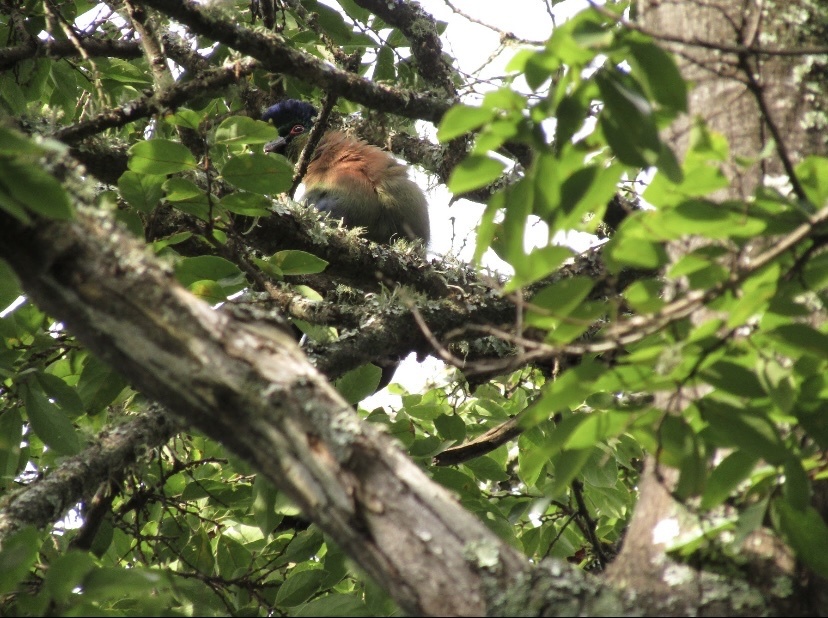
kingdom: Animalia
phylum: Chordata
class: Aves
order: Musophagiformes
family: Musophagidae
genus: Tauraco
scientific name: Tauraco porphyreolophus
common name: Purple-crested turaco
